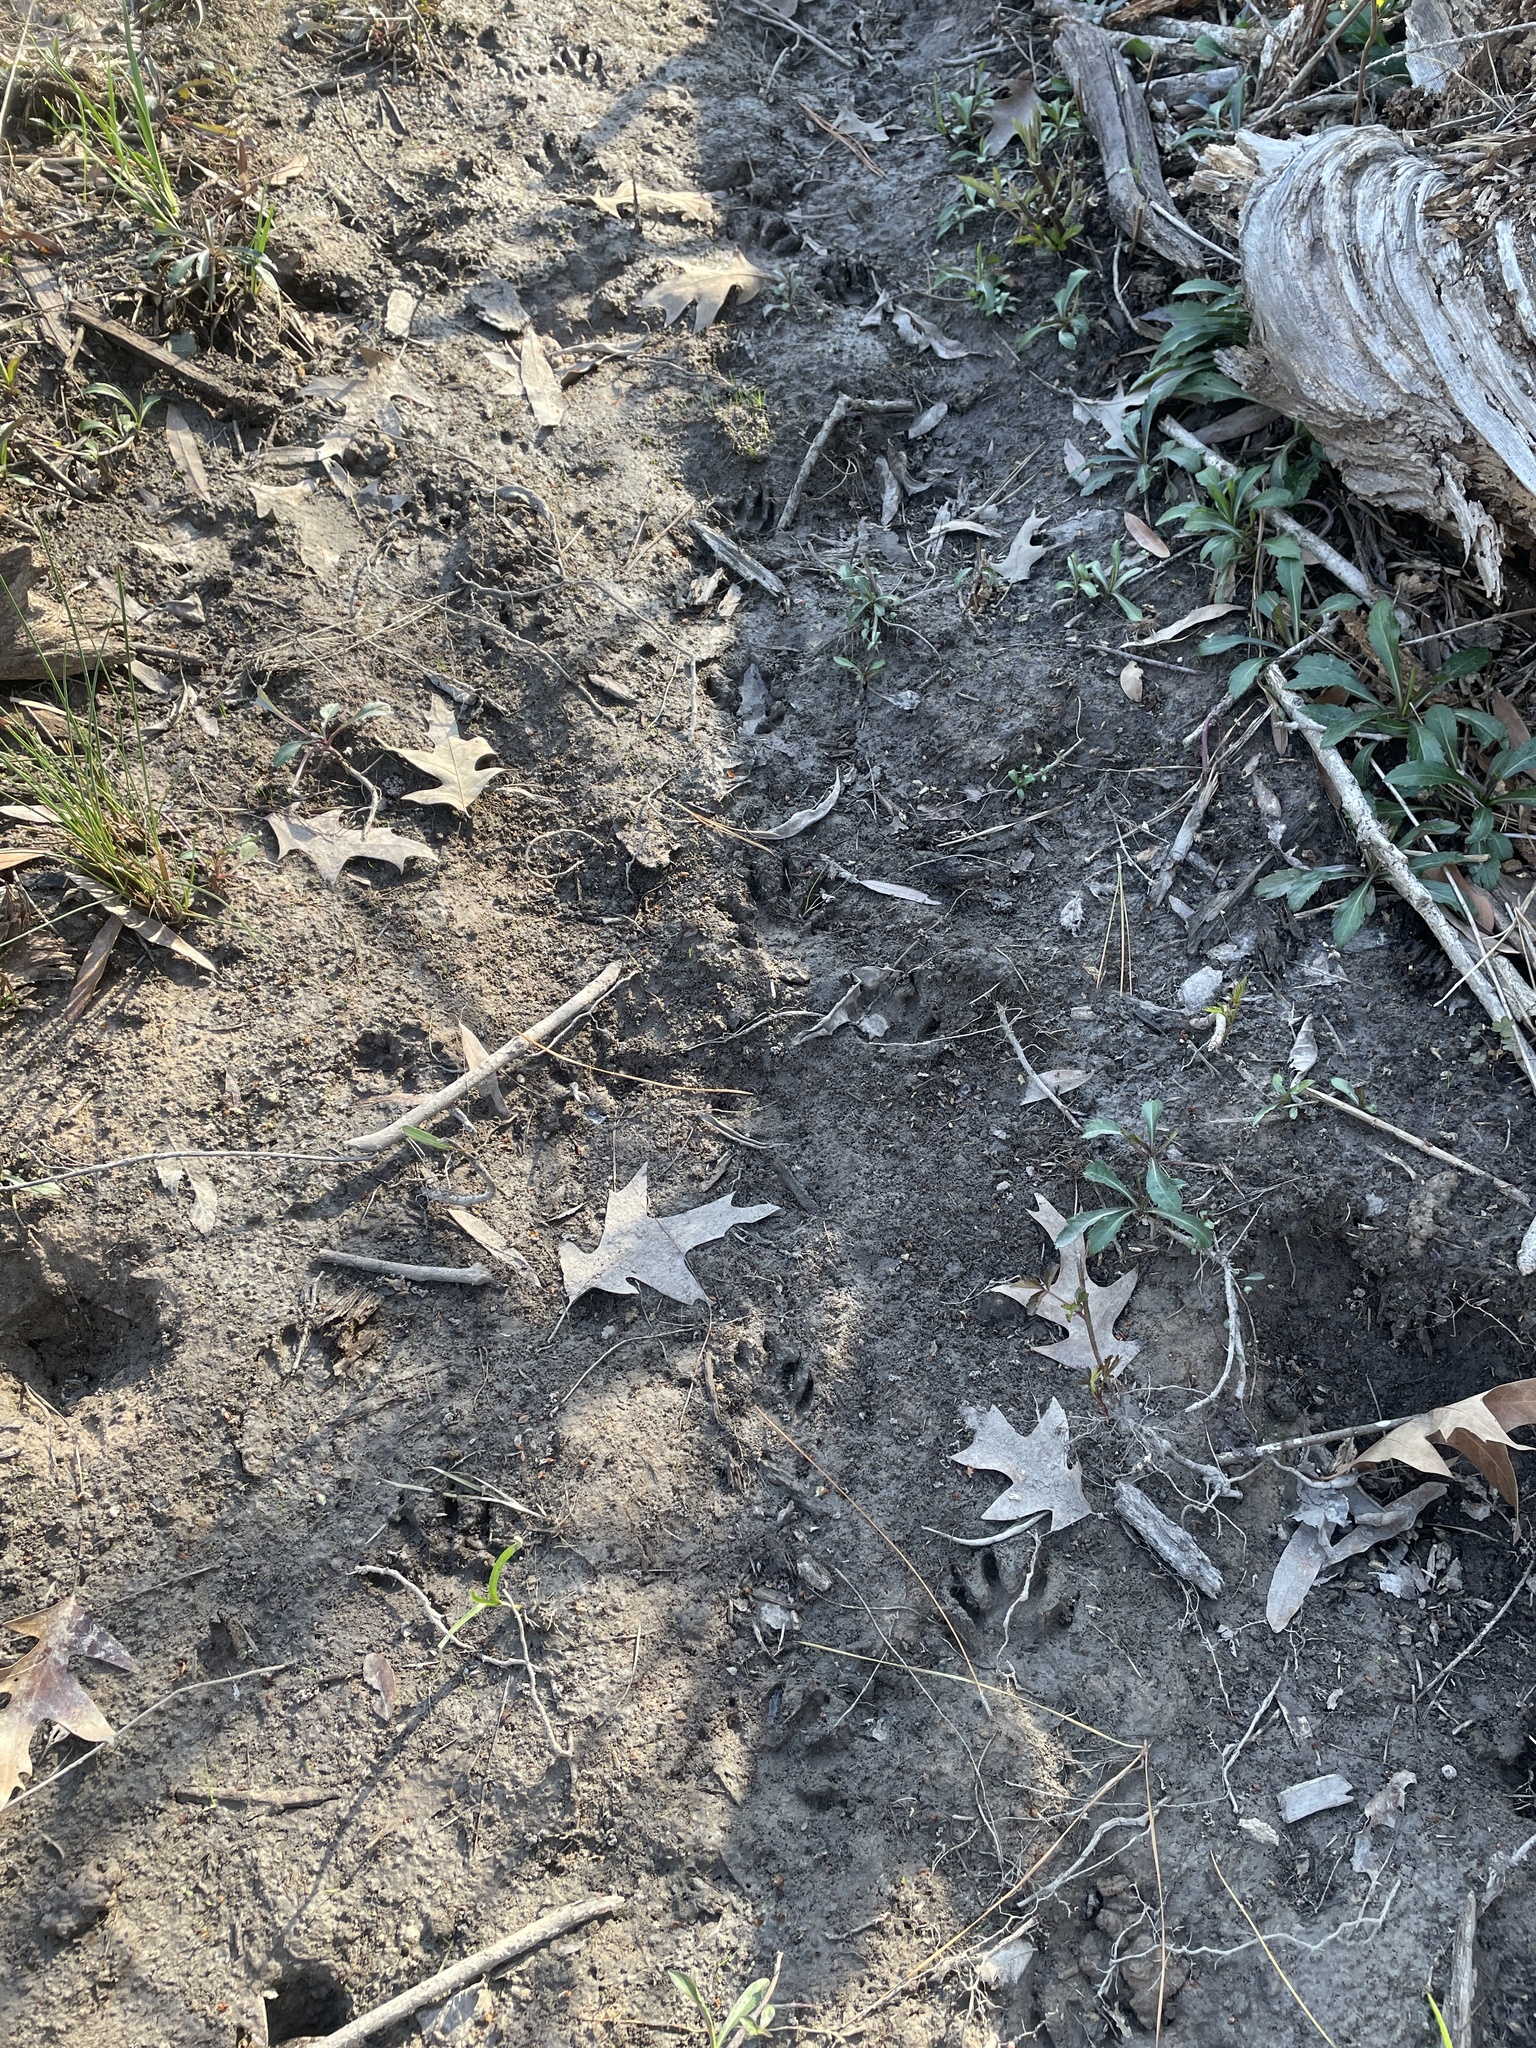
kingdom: Animalia
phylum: Chordata
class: Mammalia
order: Carnivora
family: Procyonidae
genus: Procyon
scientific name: Procyon lotor
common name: Raccoon
